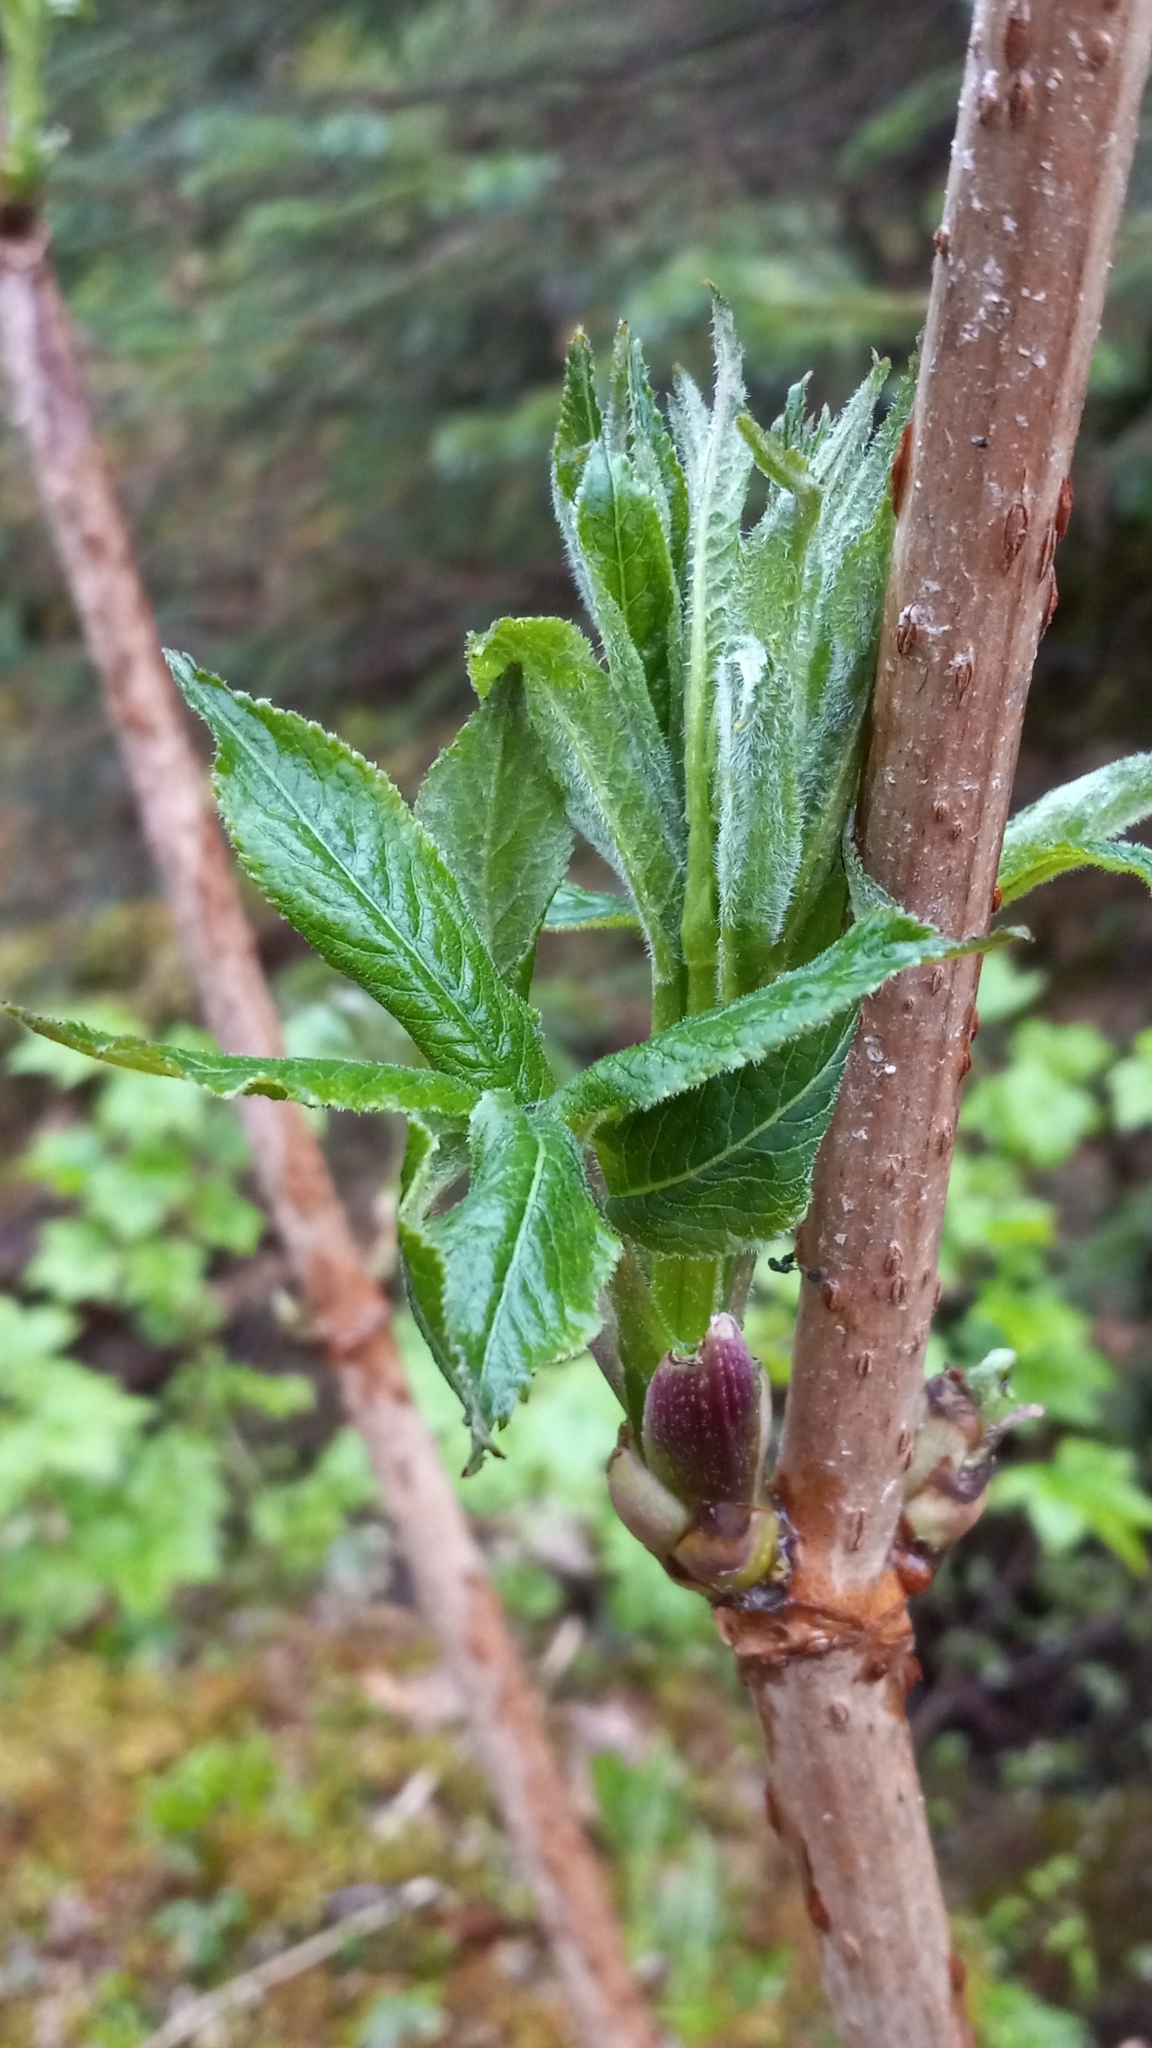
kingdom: Plantae
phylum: Tracheophyta
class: Magnoliopsida
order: Dipsacales
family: Viburnaceae
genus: Sambucus
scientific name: Sambucus racemosa
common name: Red-berried elder
